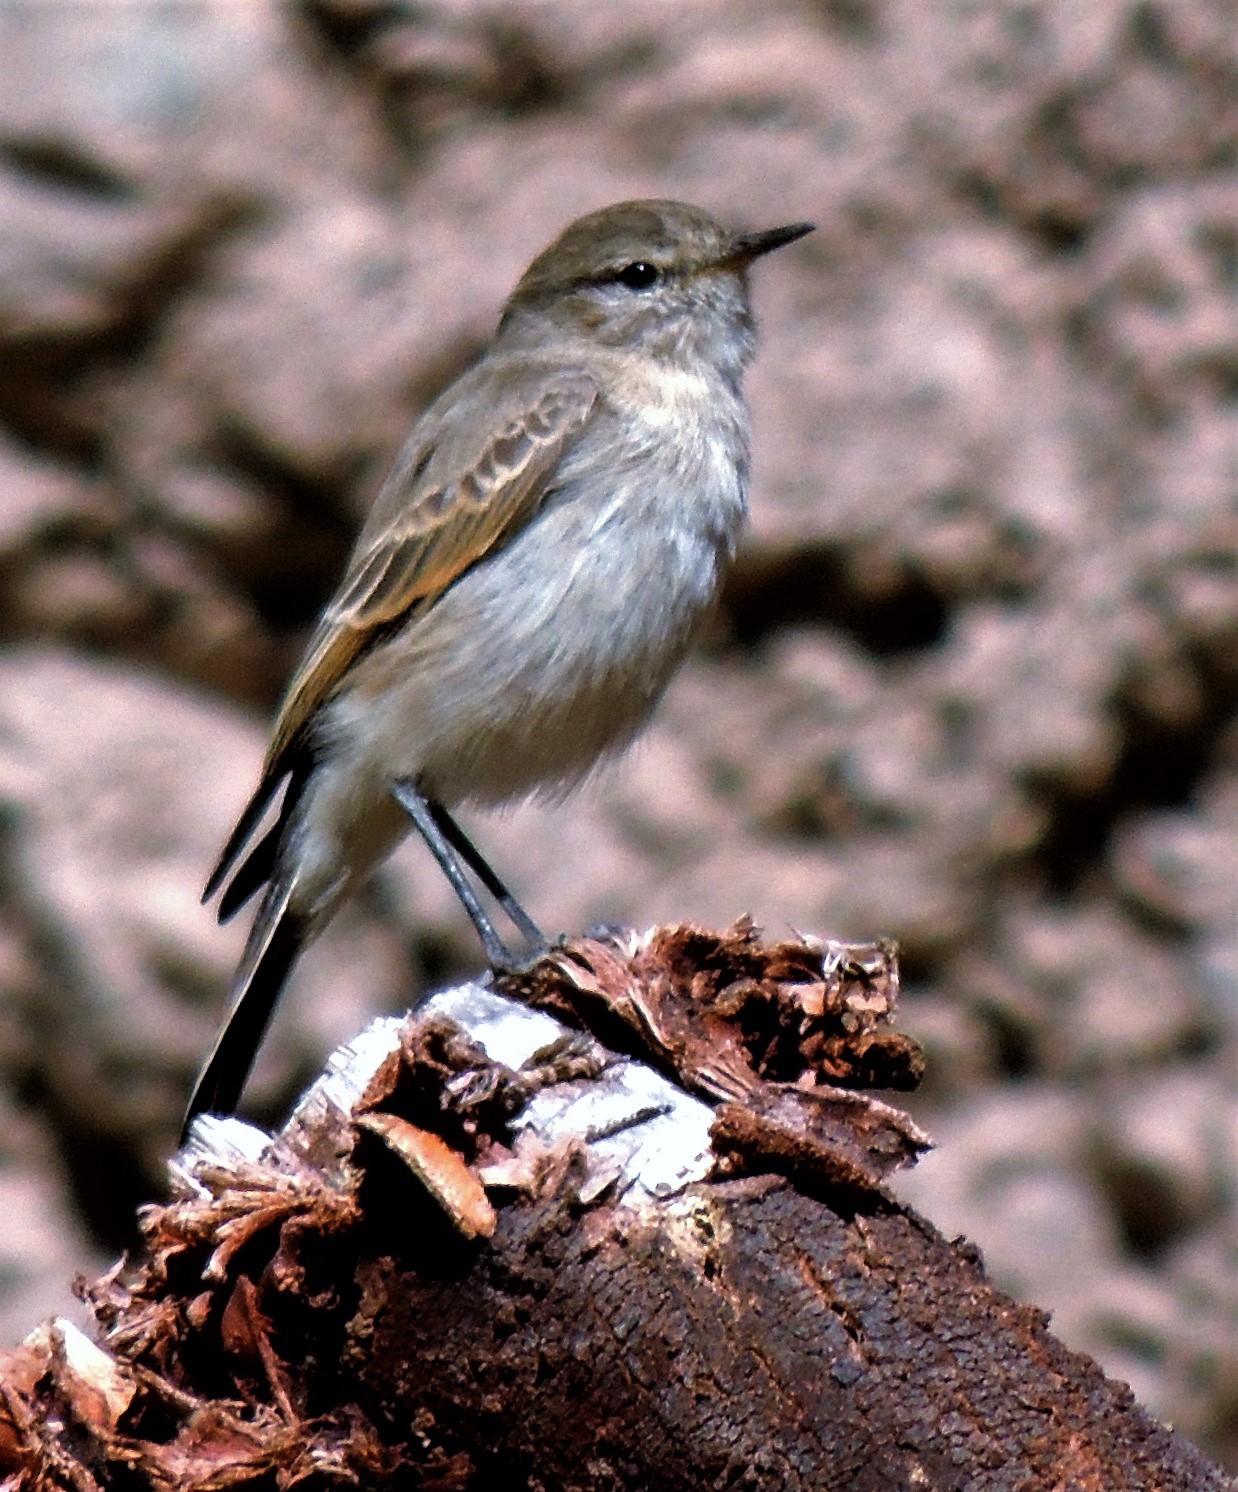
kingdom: Animalia
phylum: Chordata
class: Aves
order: Passeriformes
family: Tyrannidae
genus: Muscisaxicola
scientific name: Muscisaxicola maculirostris
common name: Spot-billed ground tyrant
